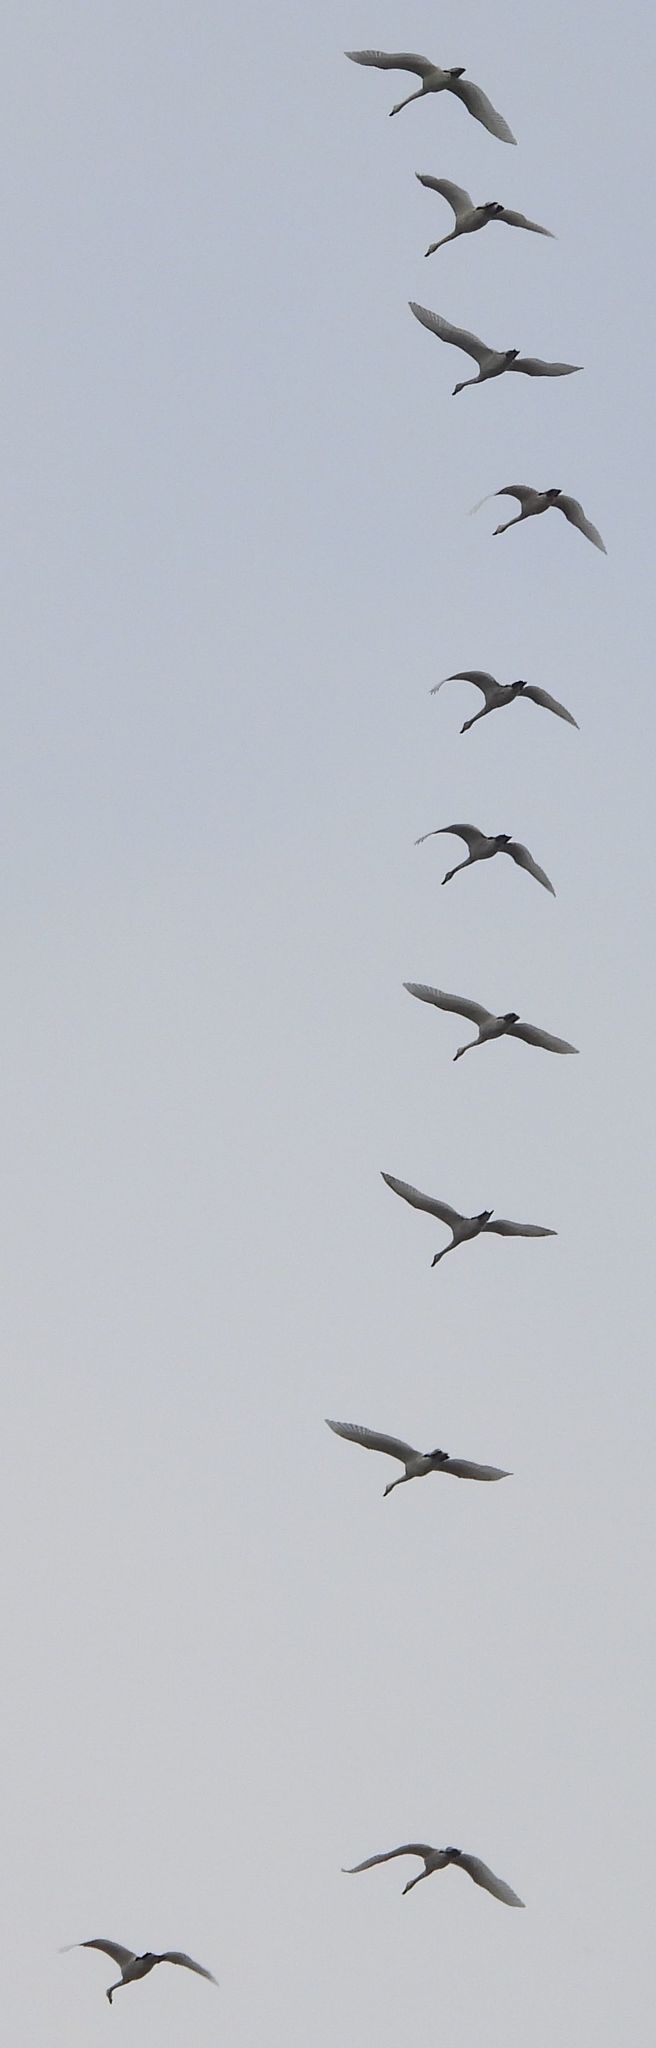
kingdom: Animalia
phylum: Chordata
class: Aves
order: Anseriformes
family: Anatidae
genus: Cygnus
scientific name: Cygnus columbianus
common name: Tundra swan
